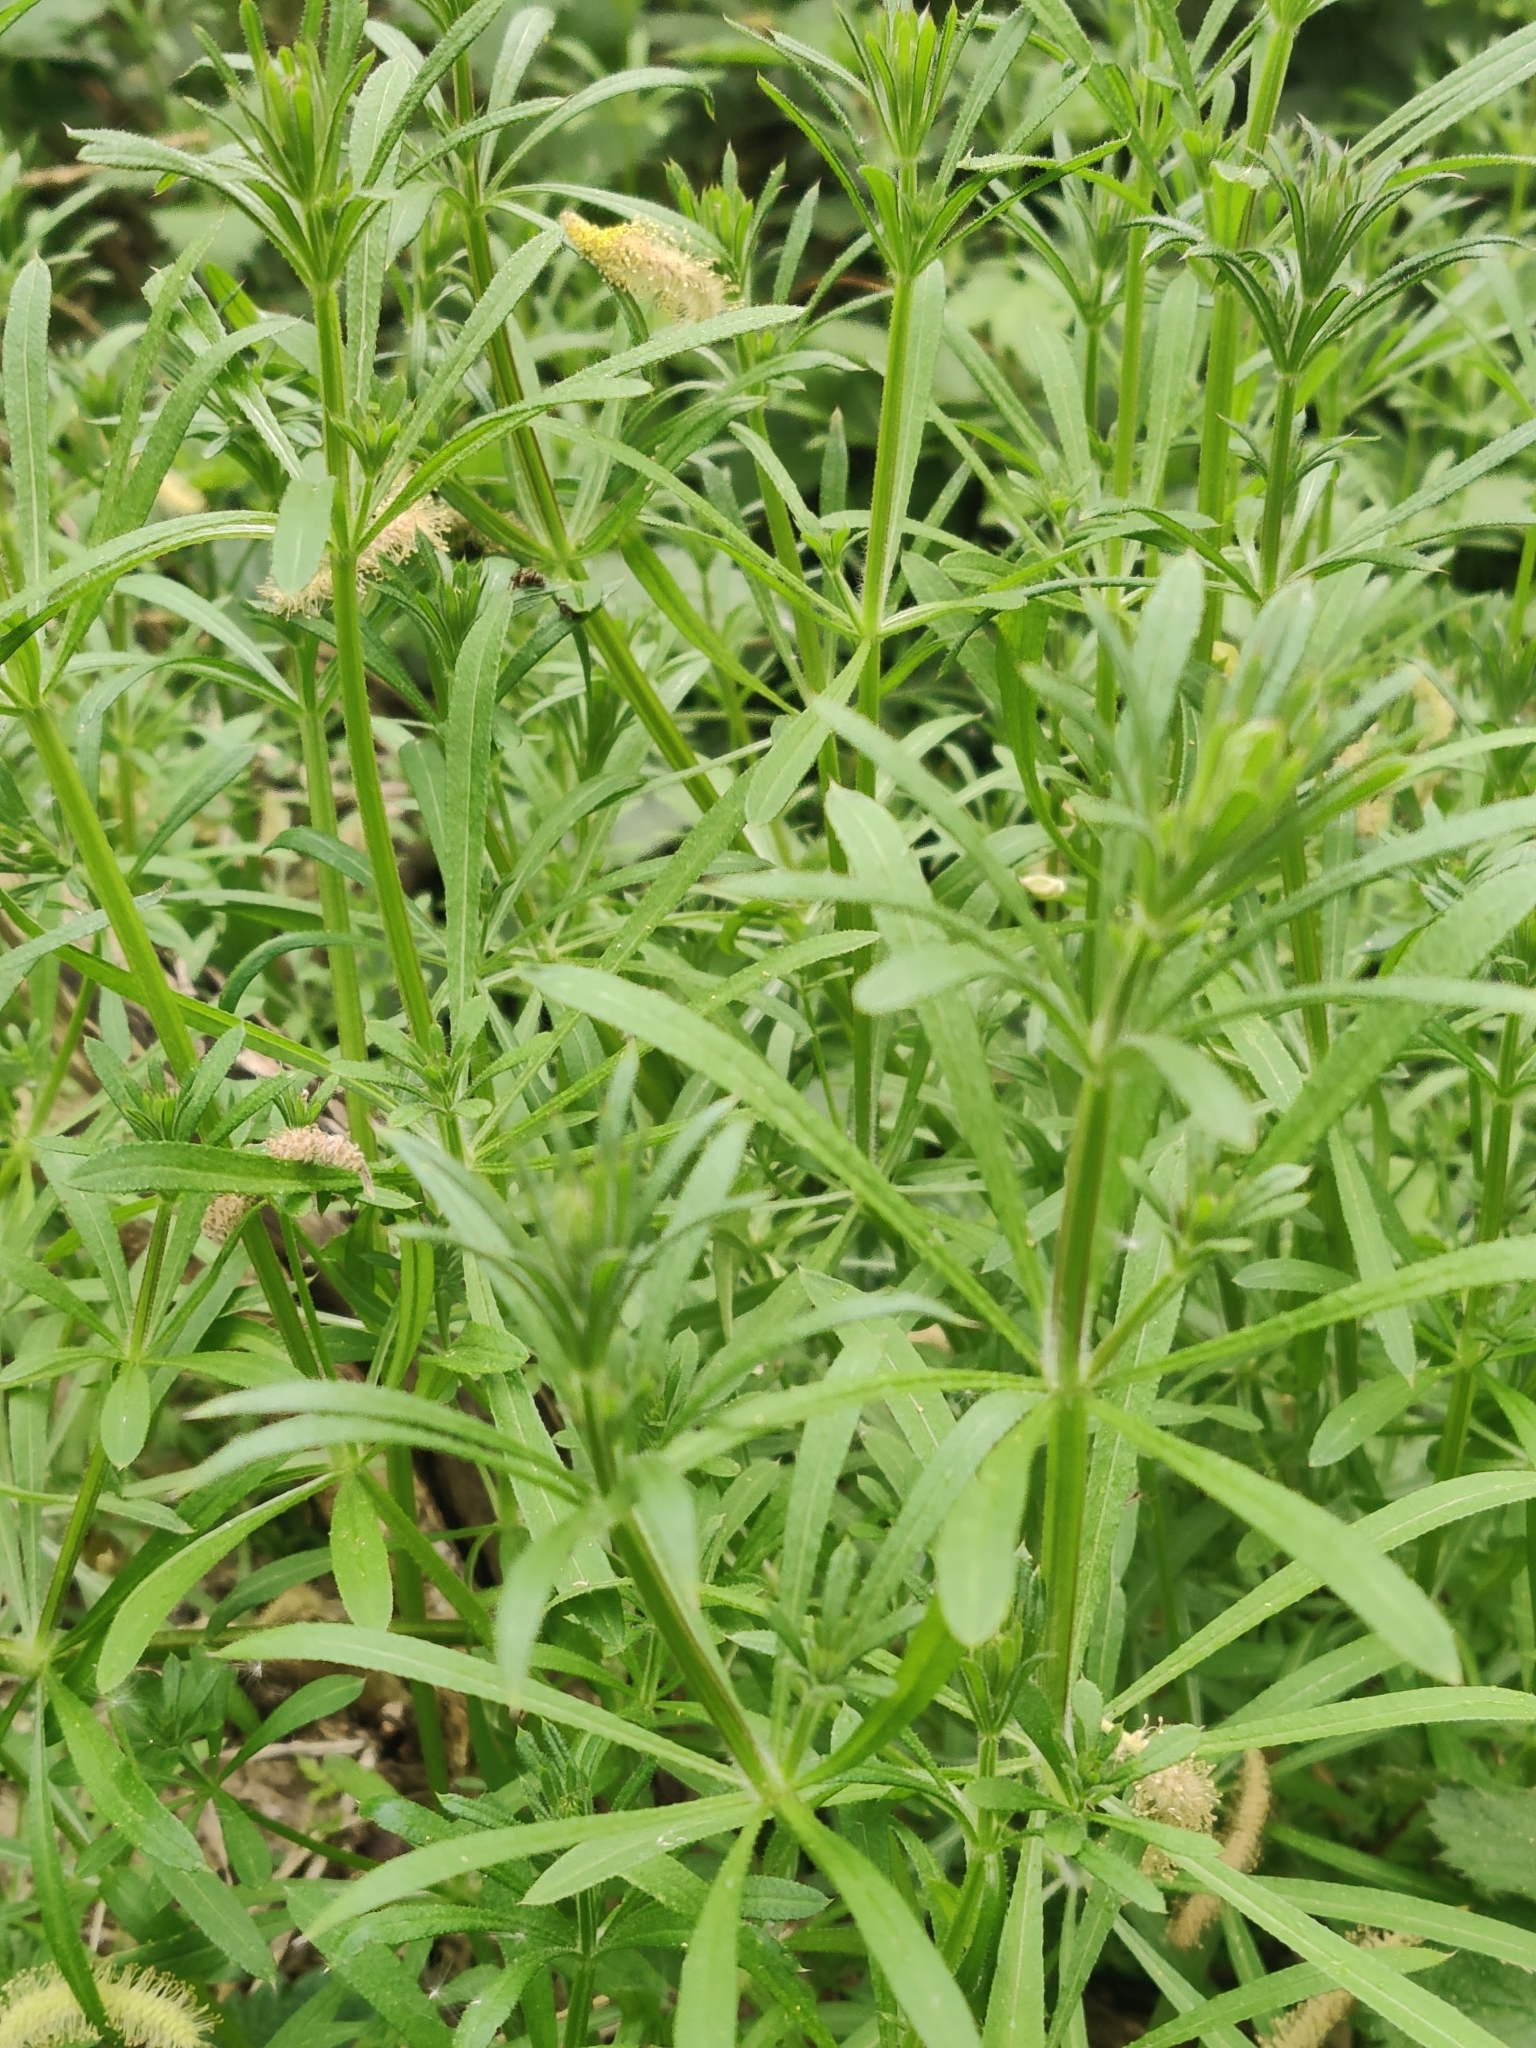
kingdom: Plantae
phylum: Tracheophyta
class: Magnoliopsida
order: Gentianales
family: Rubiaceae
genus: Galium
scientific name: Galium aparine
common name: Cleavers
